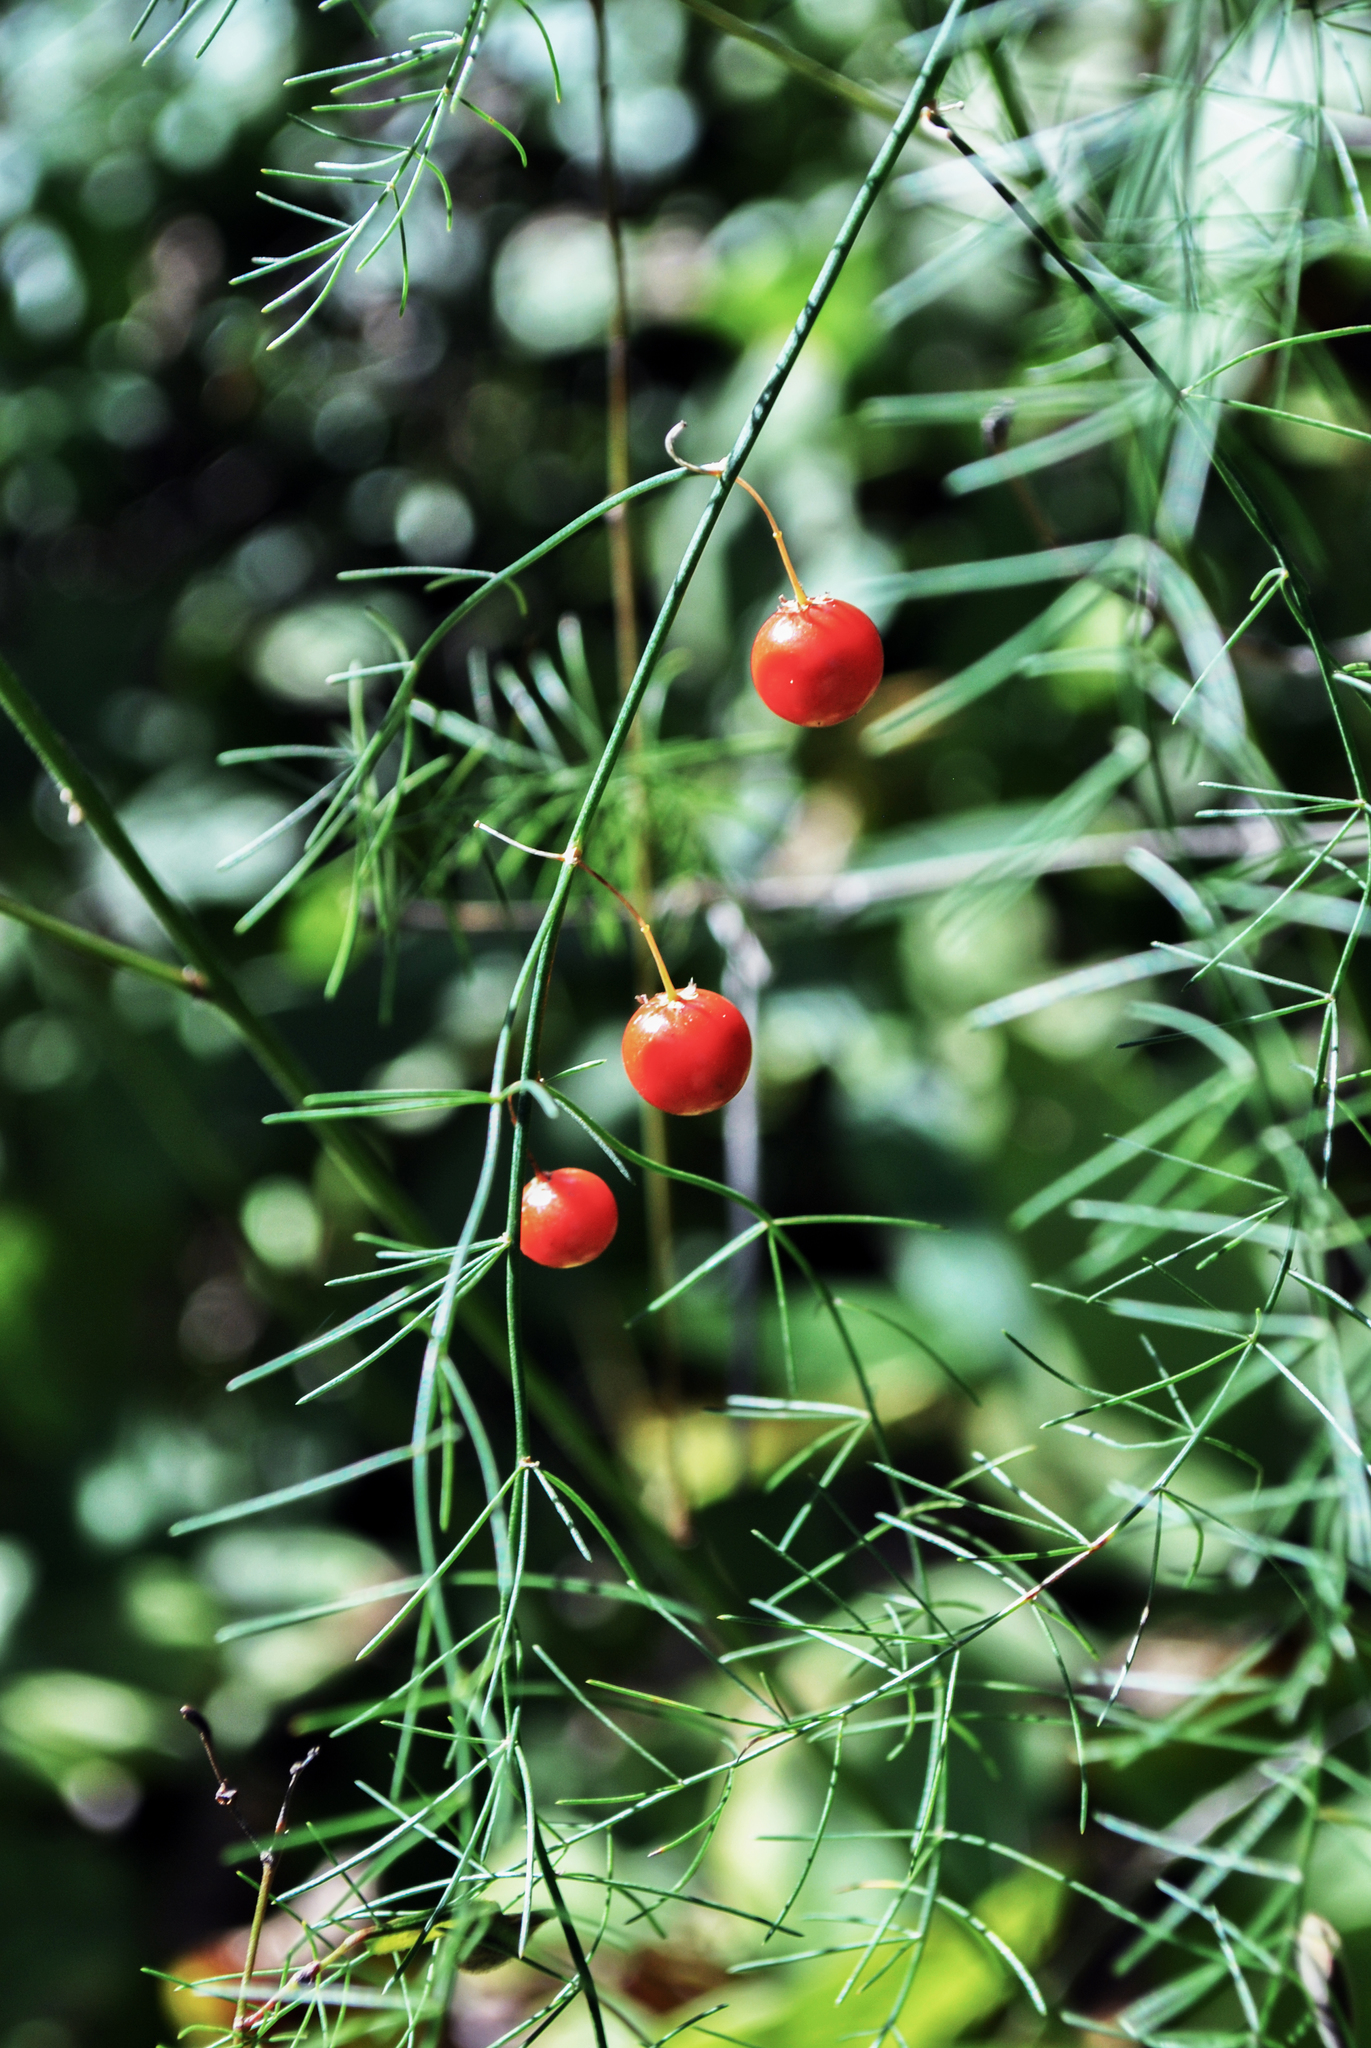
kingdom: Plantae
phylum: Tracheophyta
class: Liliopsida
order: Asparagales
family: Asparagaceae
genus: Asparagus
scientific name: Asparagus officinalis
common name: Garden asparagus
